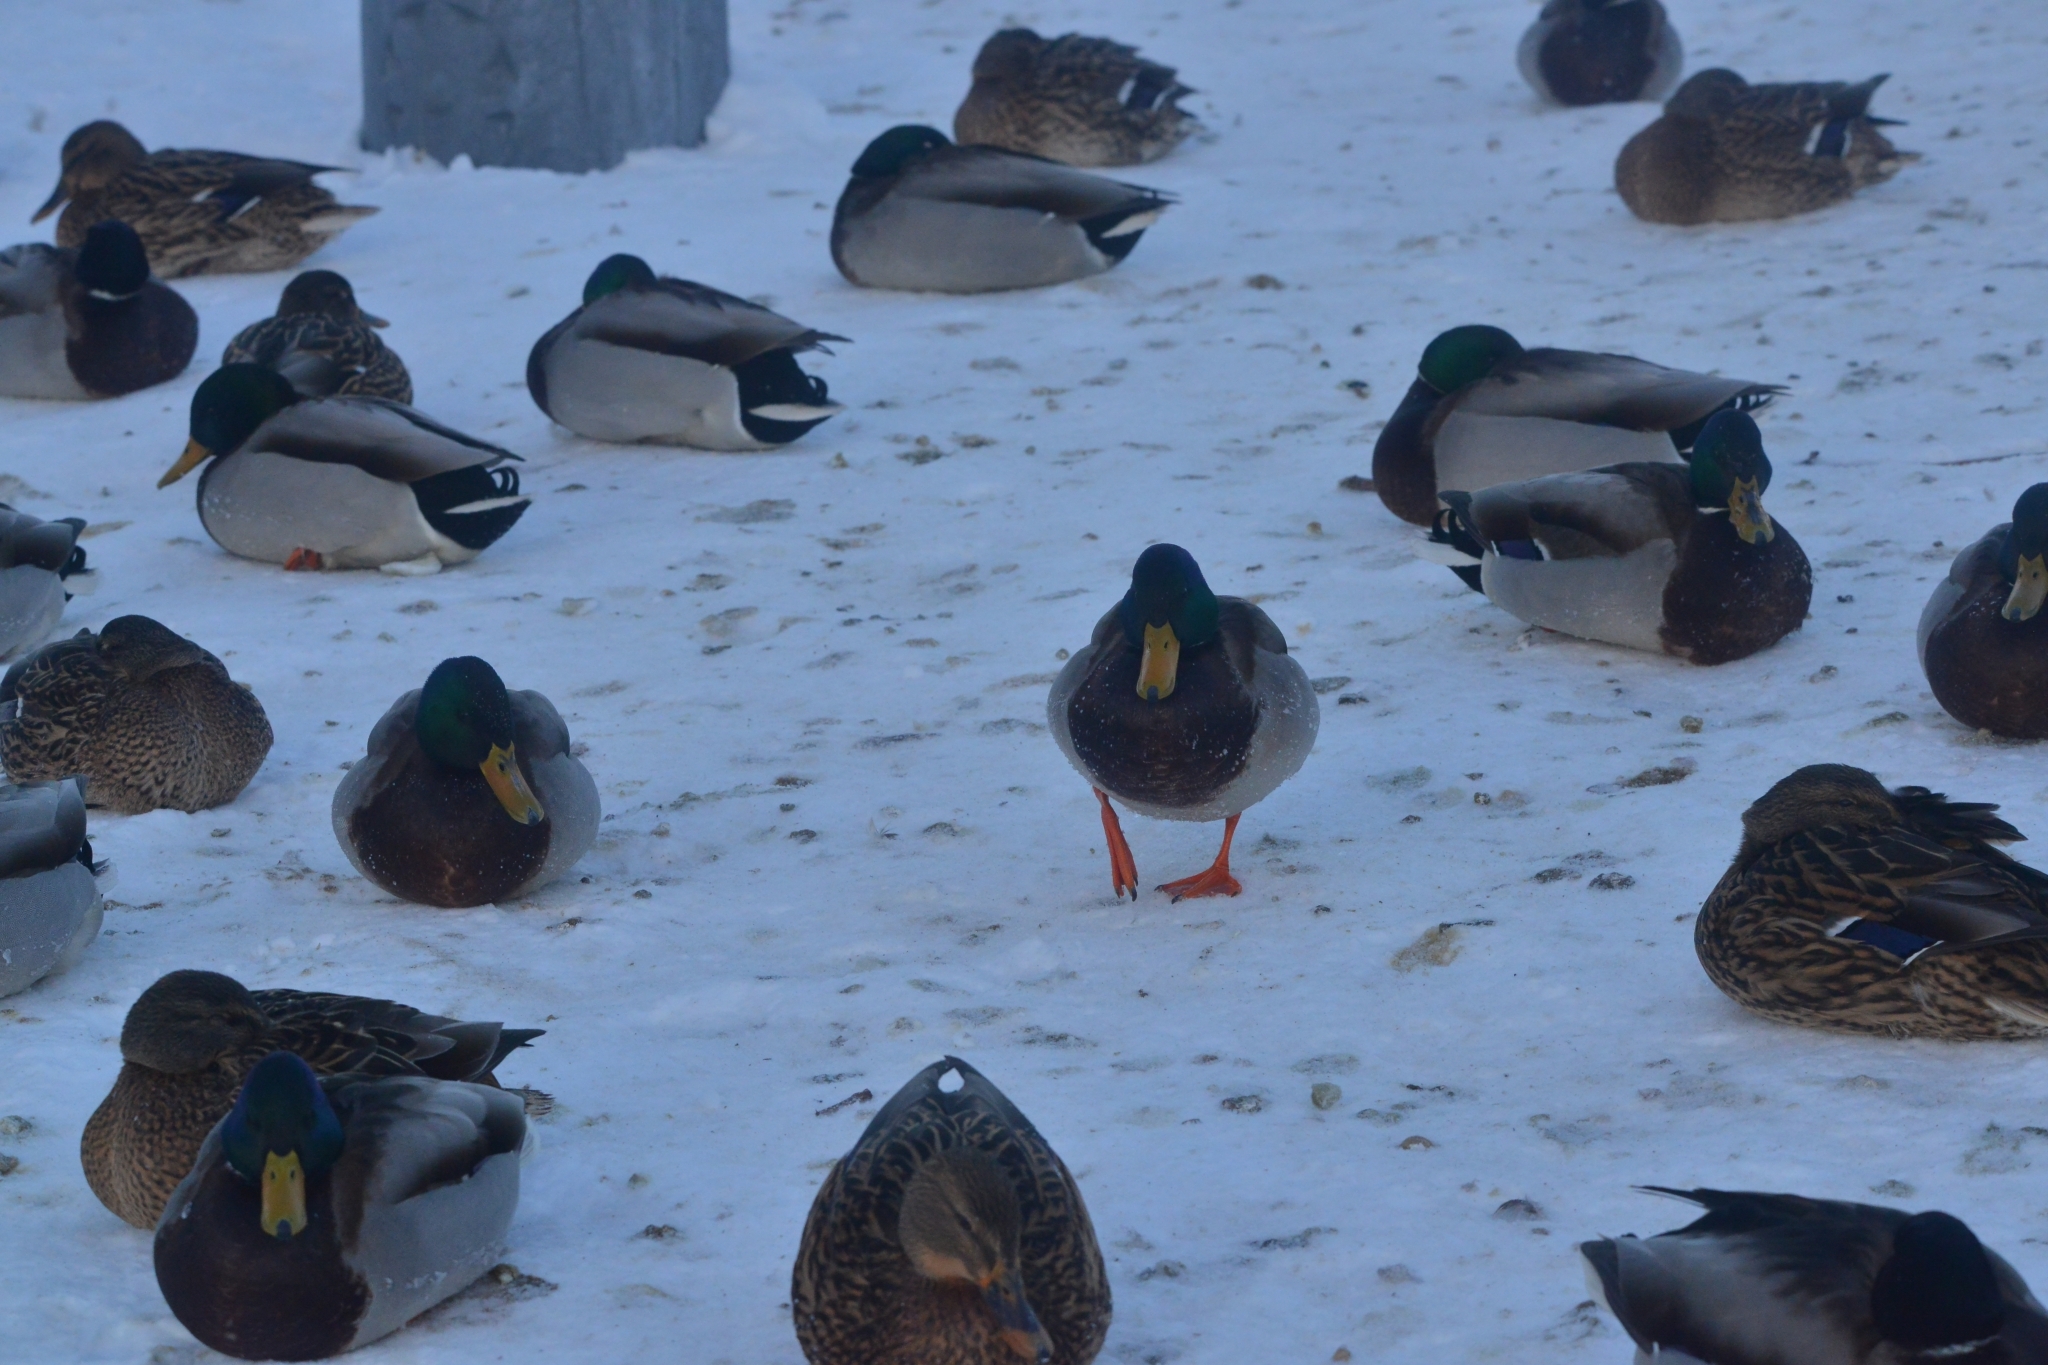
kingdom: Animalia
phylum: Chordata
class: Aves
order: Anseriformes
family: Anatidae
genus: Anas
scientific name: Anas platyrhynchos
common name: Mallard
